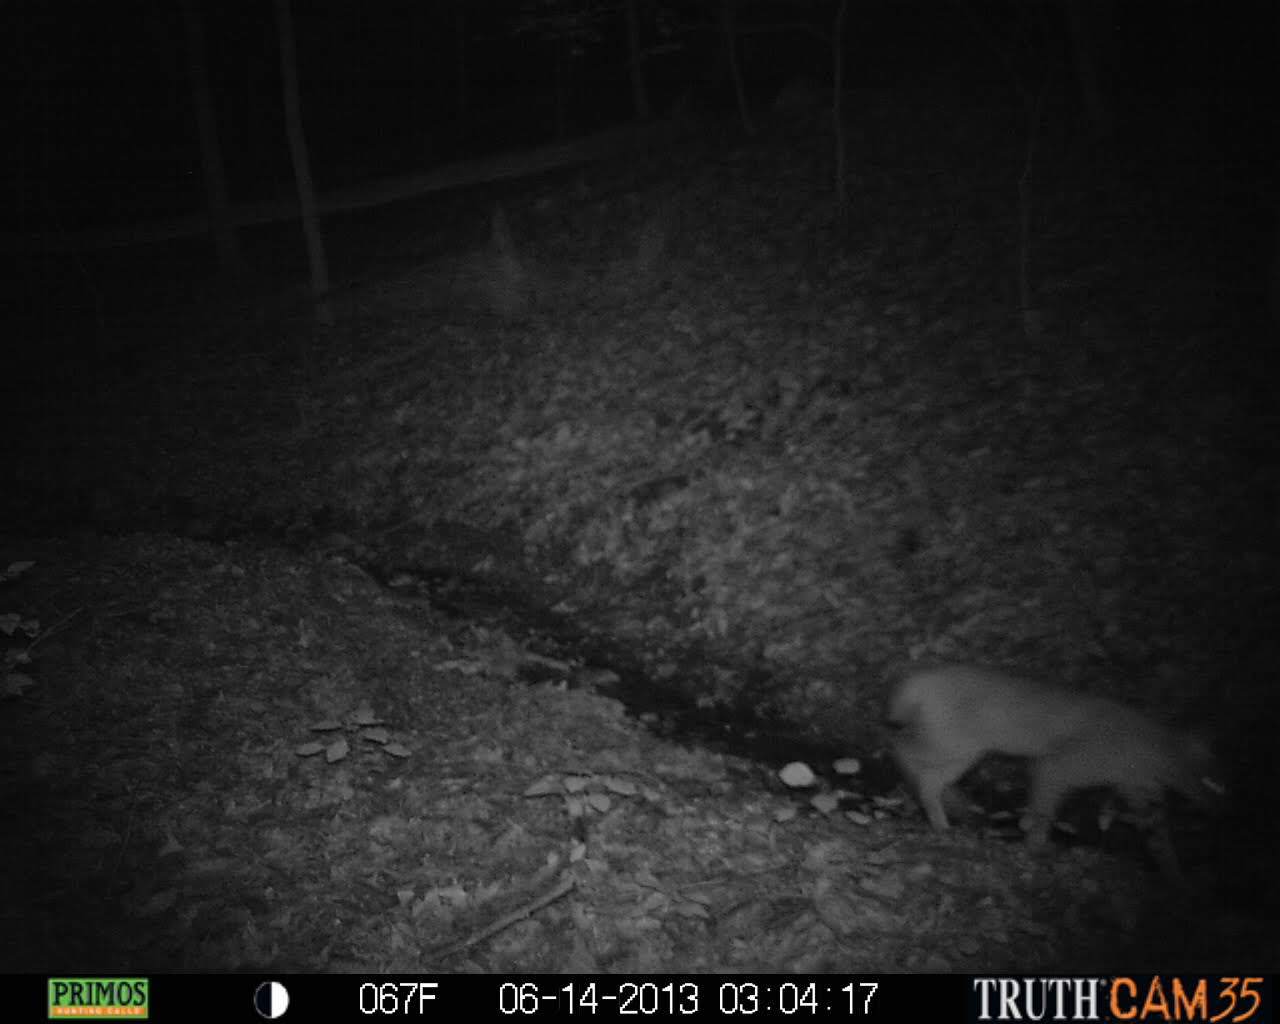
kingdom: Animalia
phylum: Chordata
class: Mammalia
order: Carnivora
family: Felidae
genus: Lynx
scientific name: Lynx rufus
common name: Bobcat
